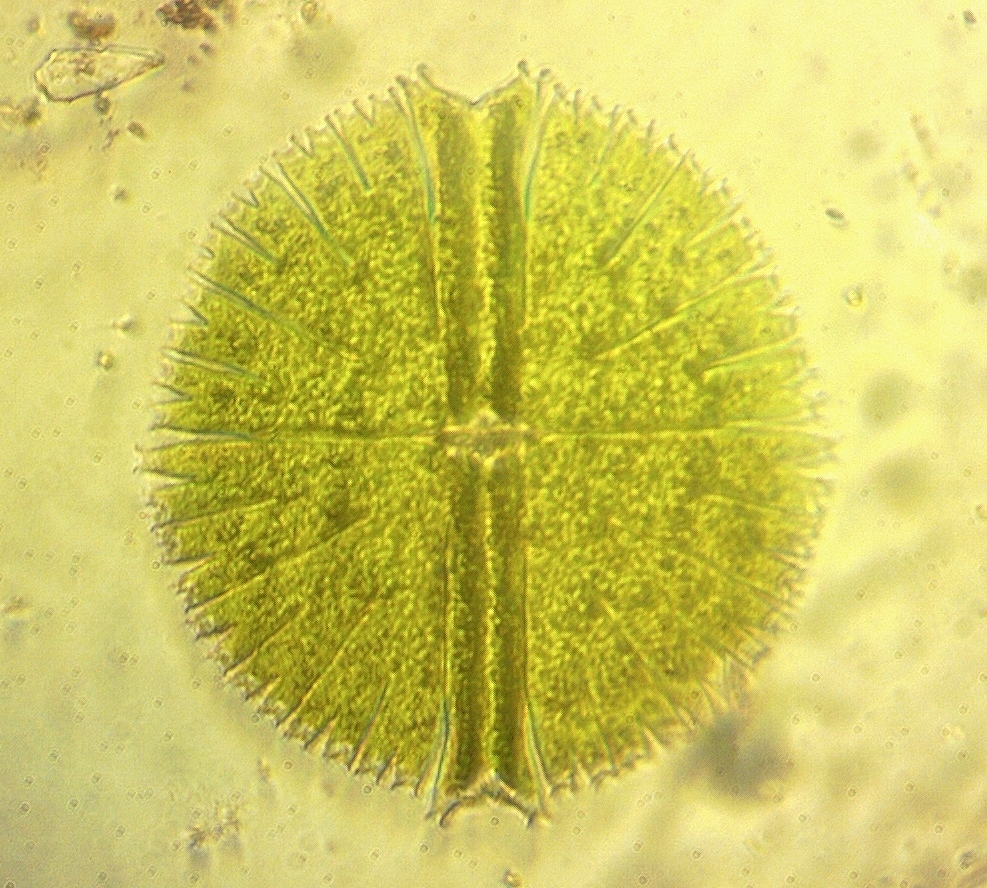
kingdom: Plantae
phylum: Charophyta
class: Conjugatophyceae
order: Desmidiales
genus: Micrasterias
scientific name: Micrasterias rotata
